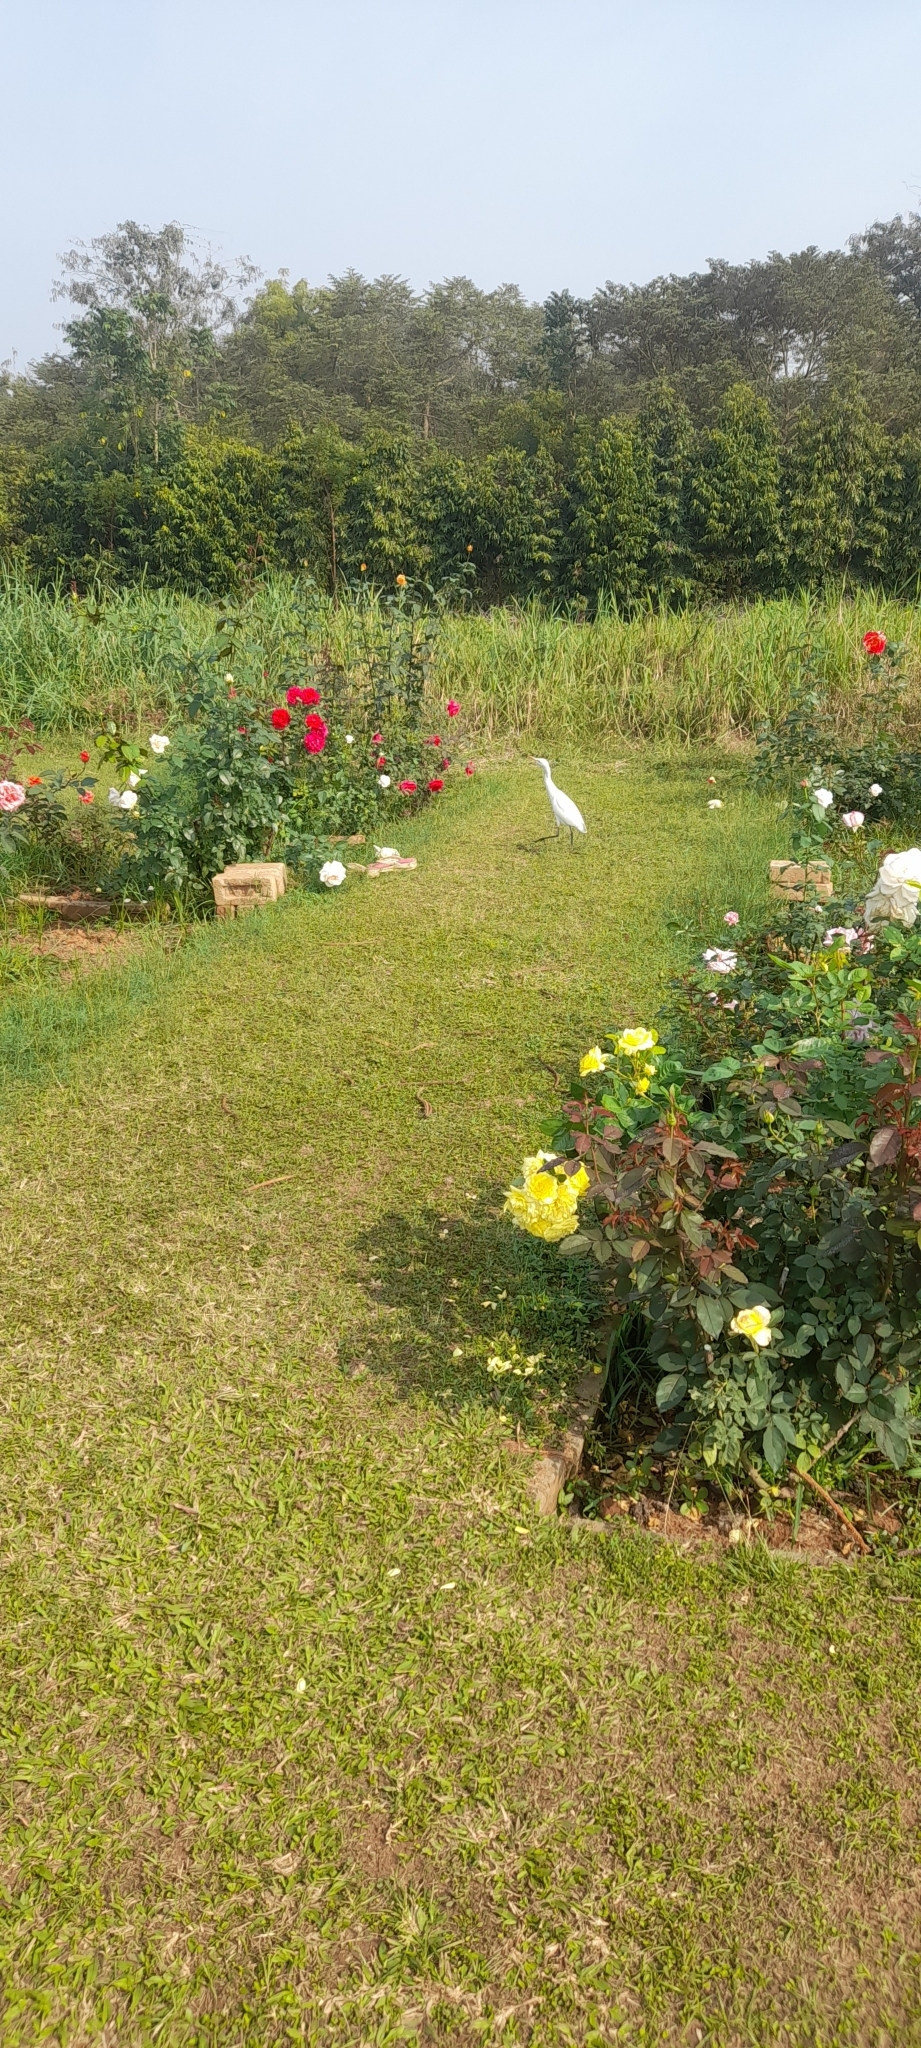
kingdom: Animalia
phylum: Chordata
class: Aves
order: Pelecaniformes
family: Ardeidae
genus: Bubulcus
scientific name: Bubulcus coromandus
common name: Eastern cattle egret
